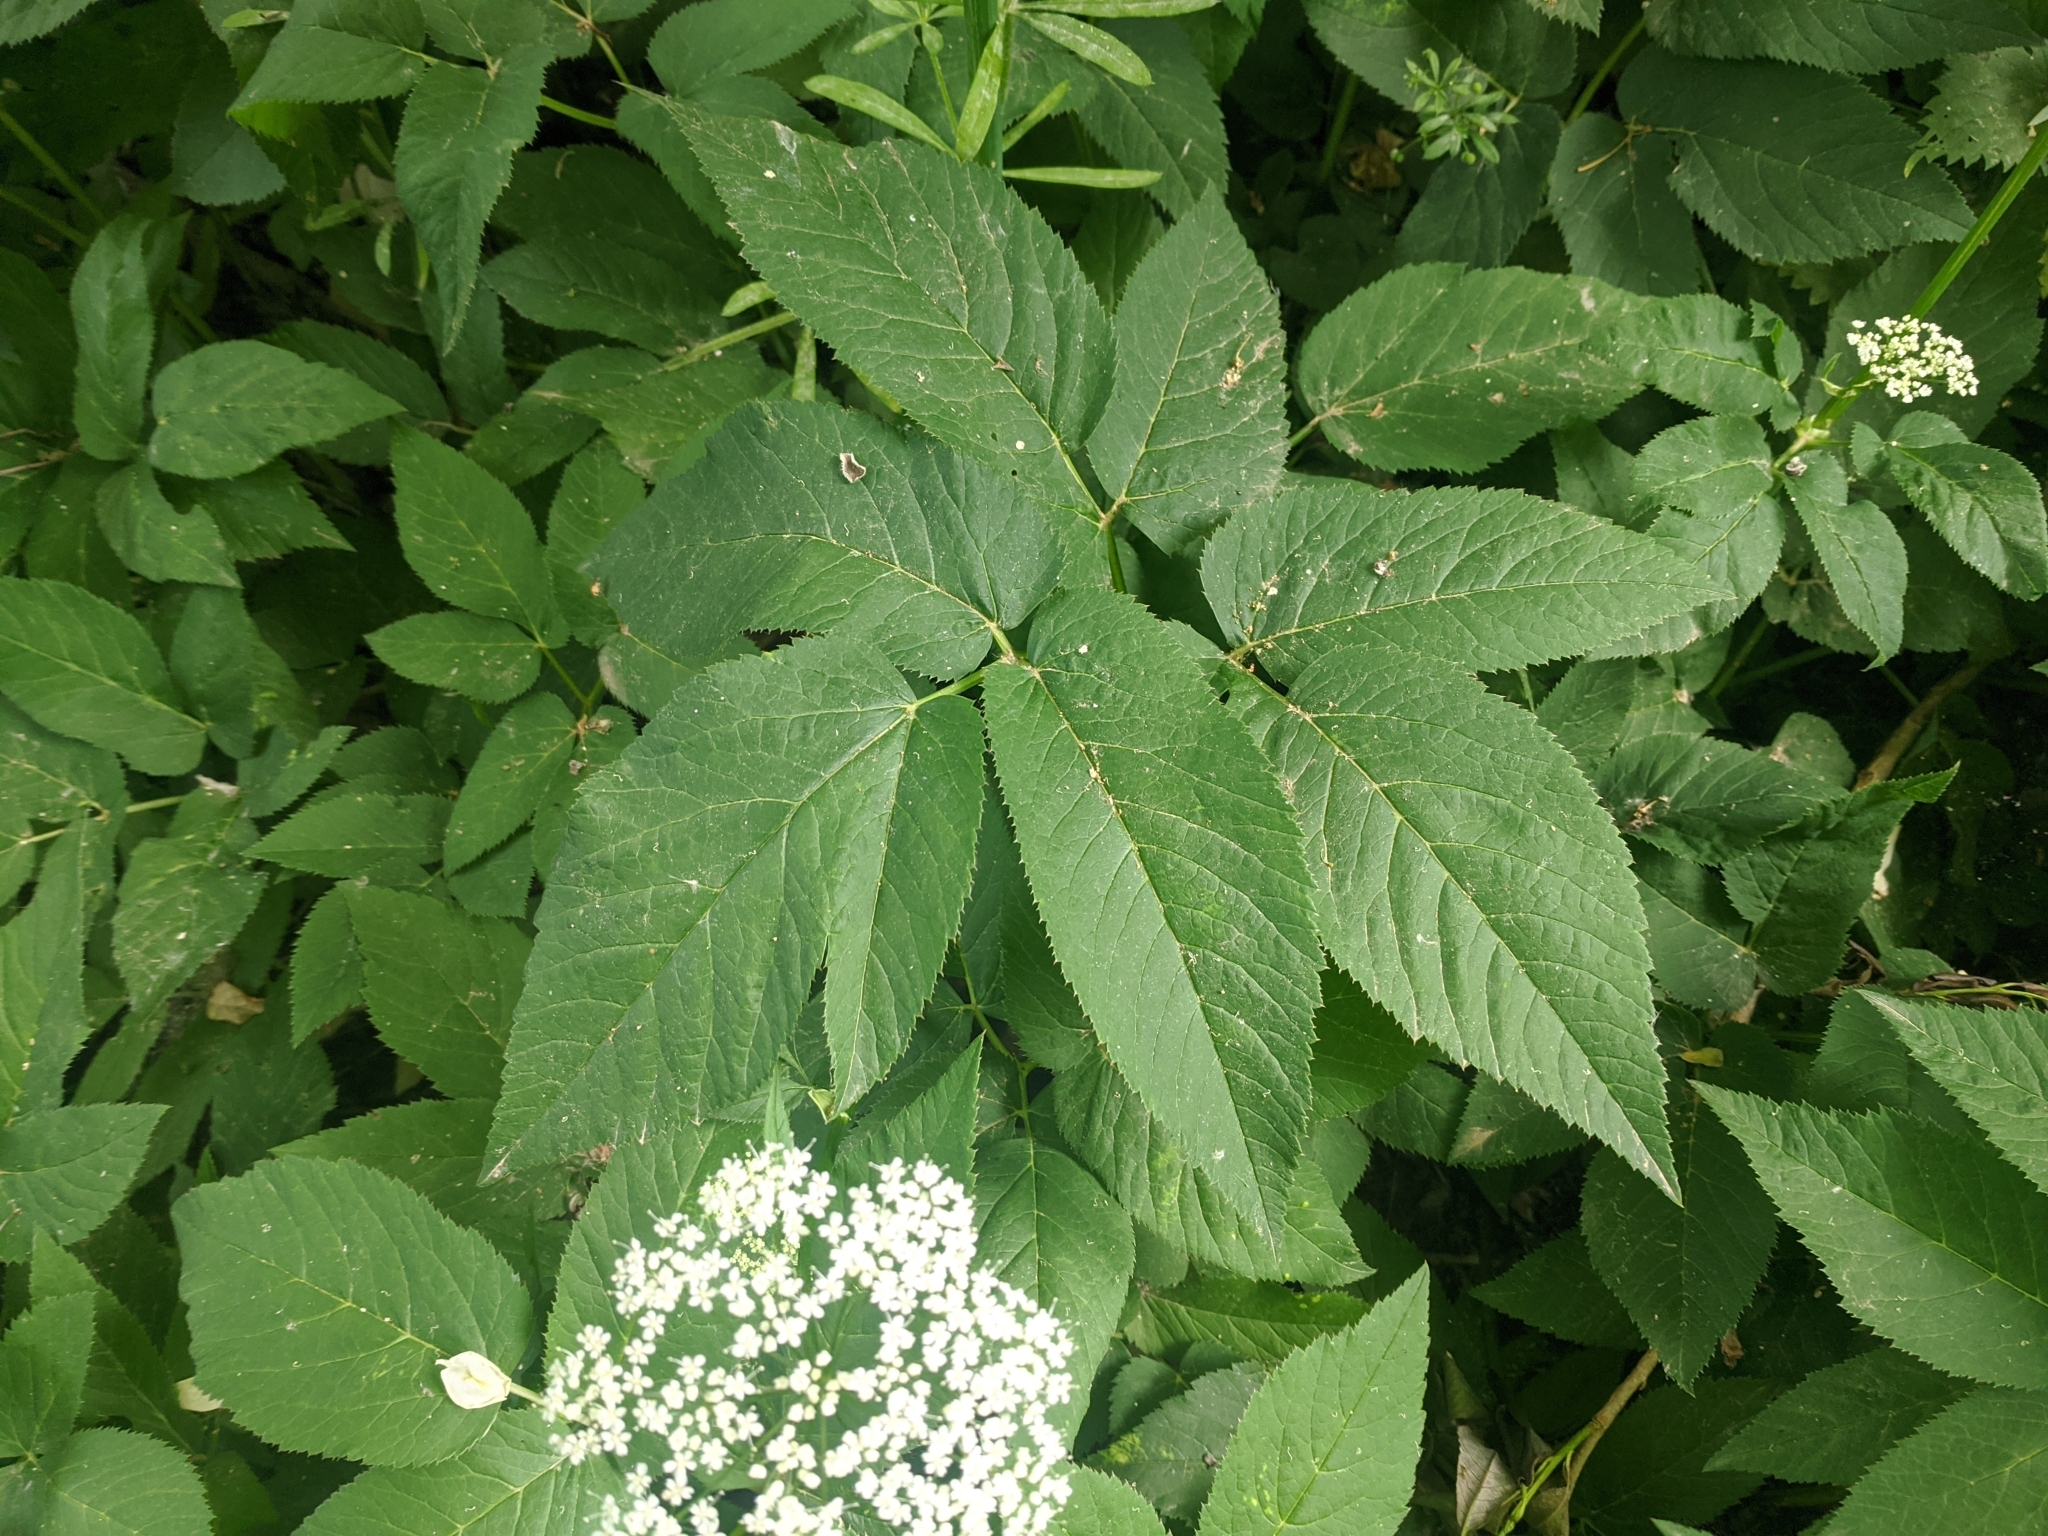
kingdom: Plantae
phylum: Tracheophyta
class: Magnoliopsida
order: Apiales
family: Apiaceae
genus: Aegopodium
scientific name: Aegopodium podagraria
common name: Ground-elder
